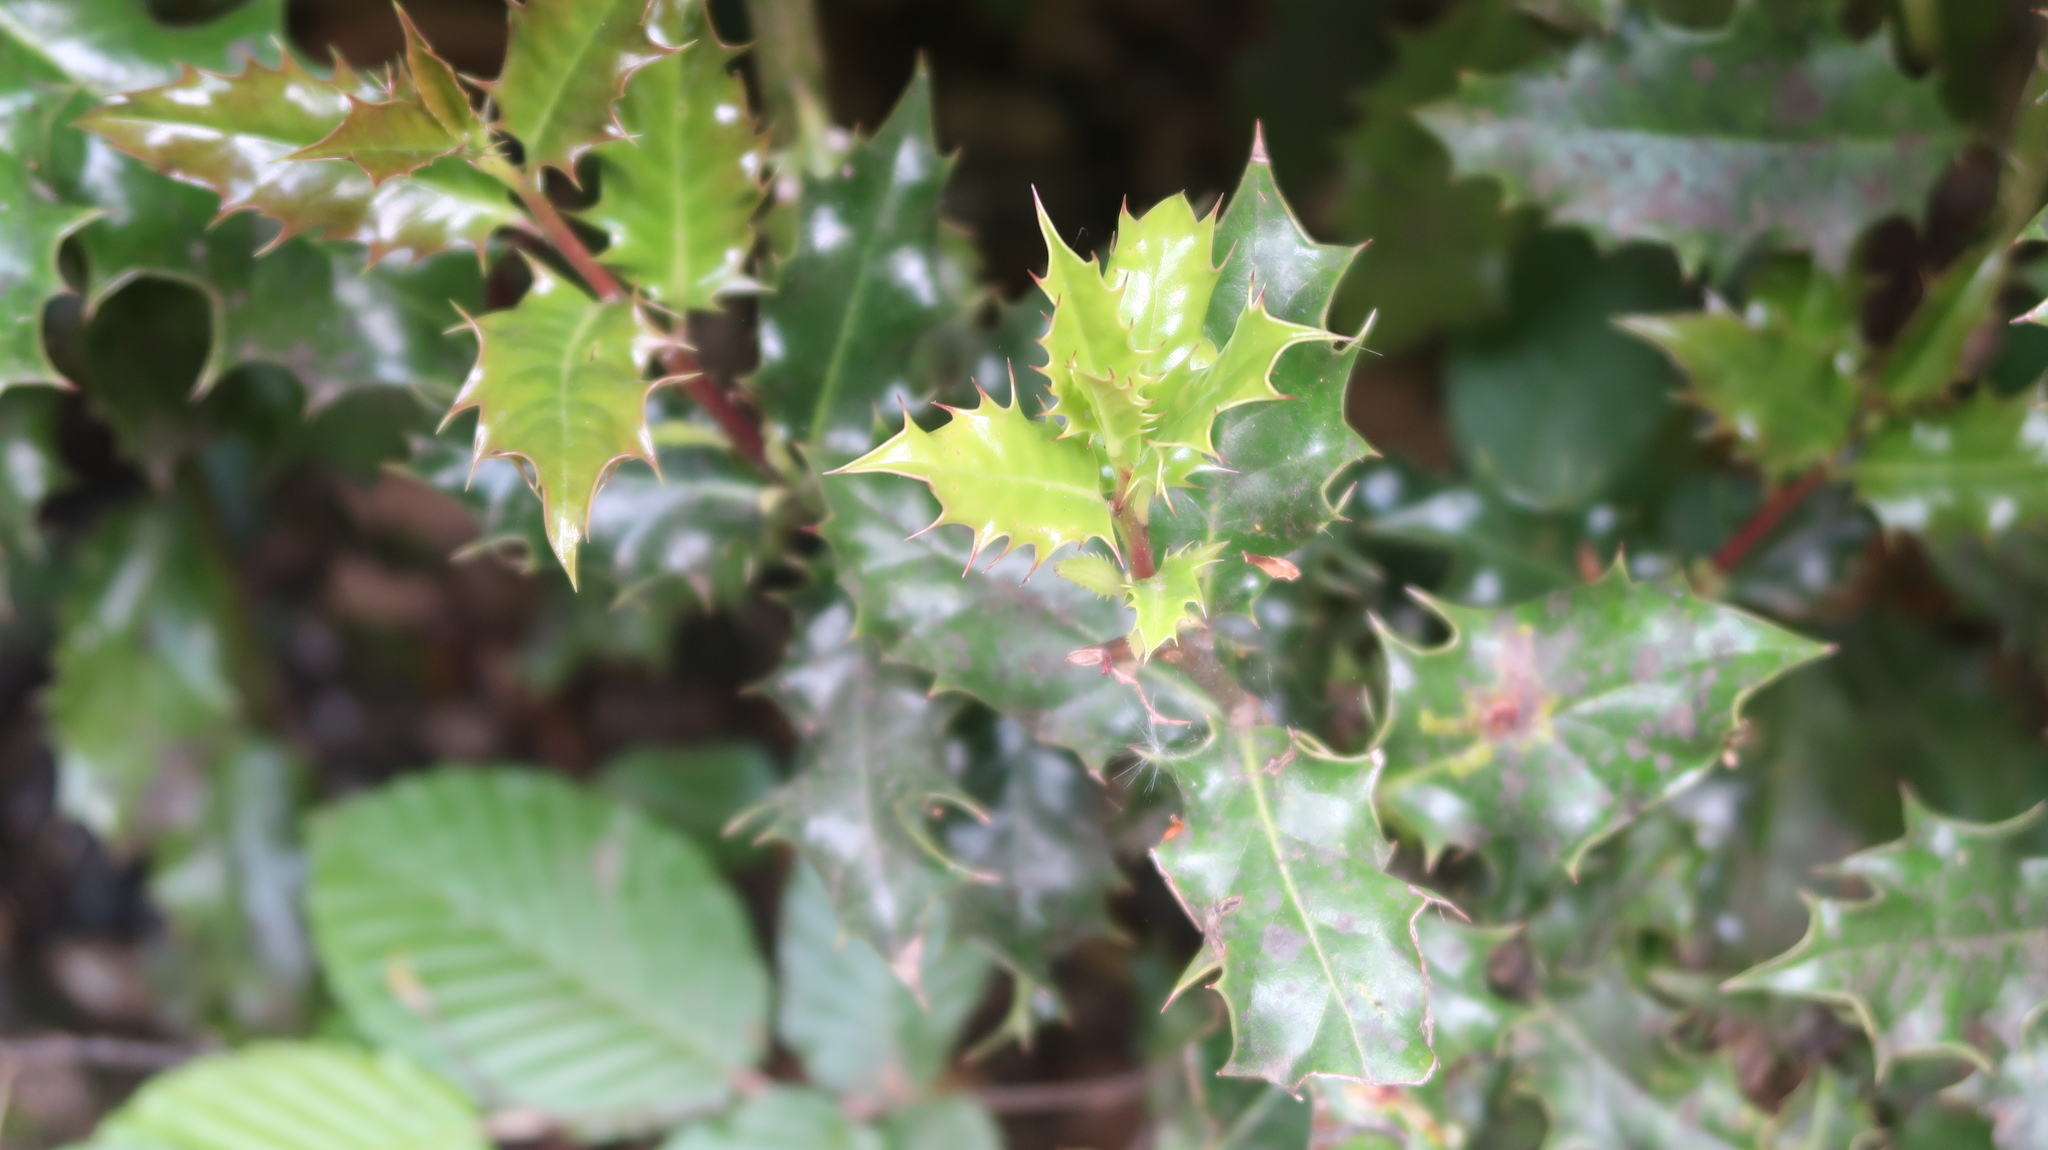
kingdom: Plantae
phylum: Tracheophyta
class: Magnoliopsida
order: Aquifoliales
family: Aquifoliaceae
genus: Ilex
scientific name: Ilex aquifolium
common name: English holly
